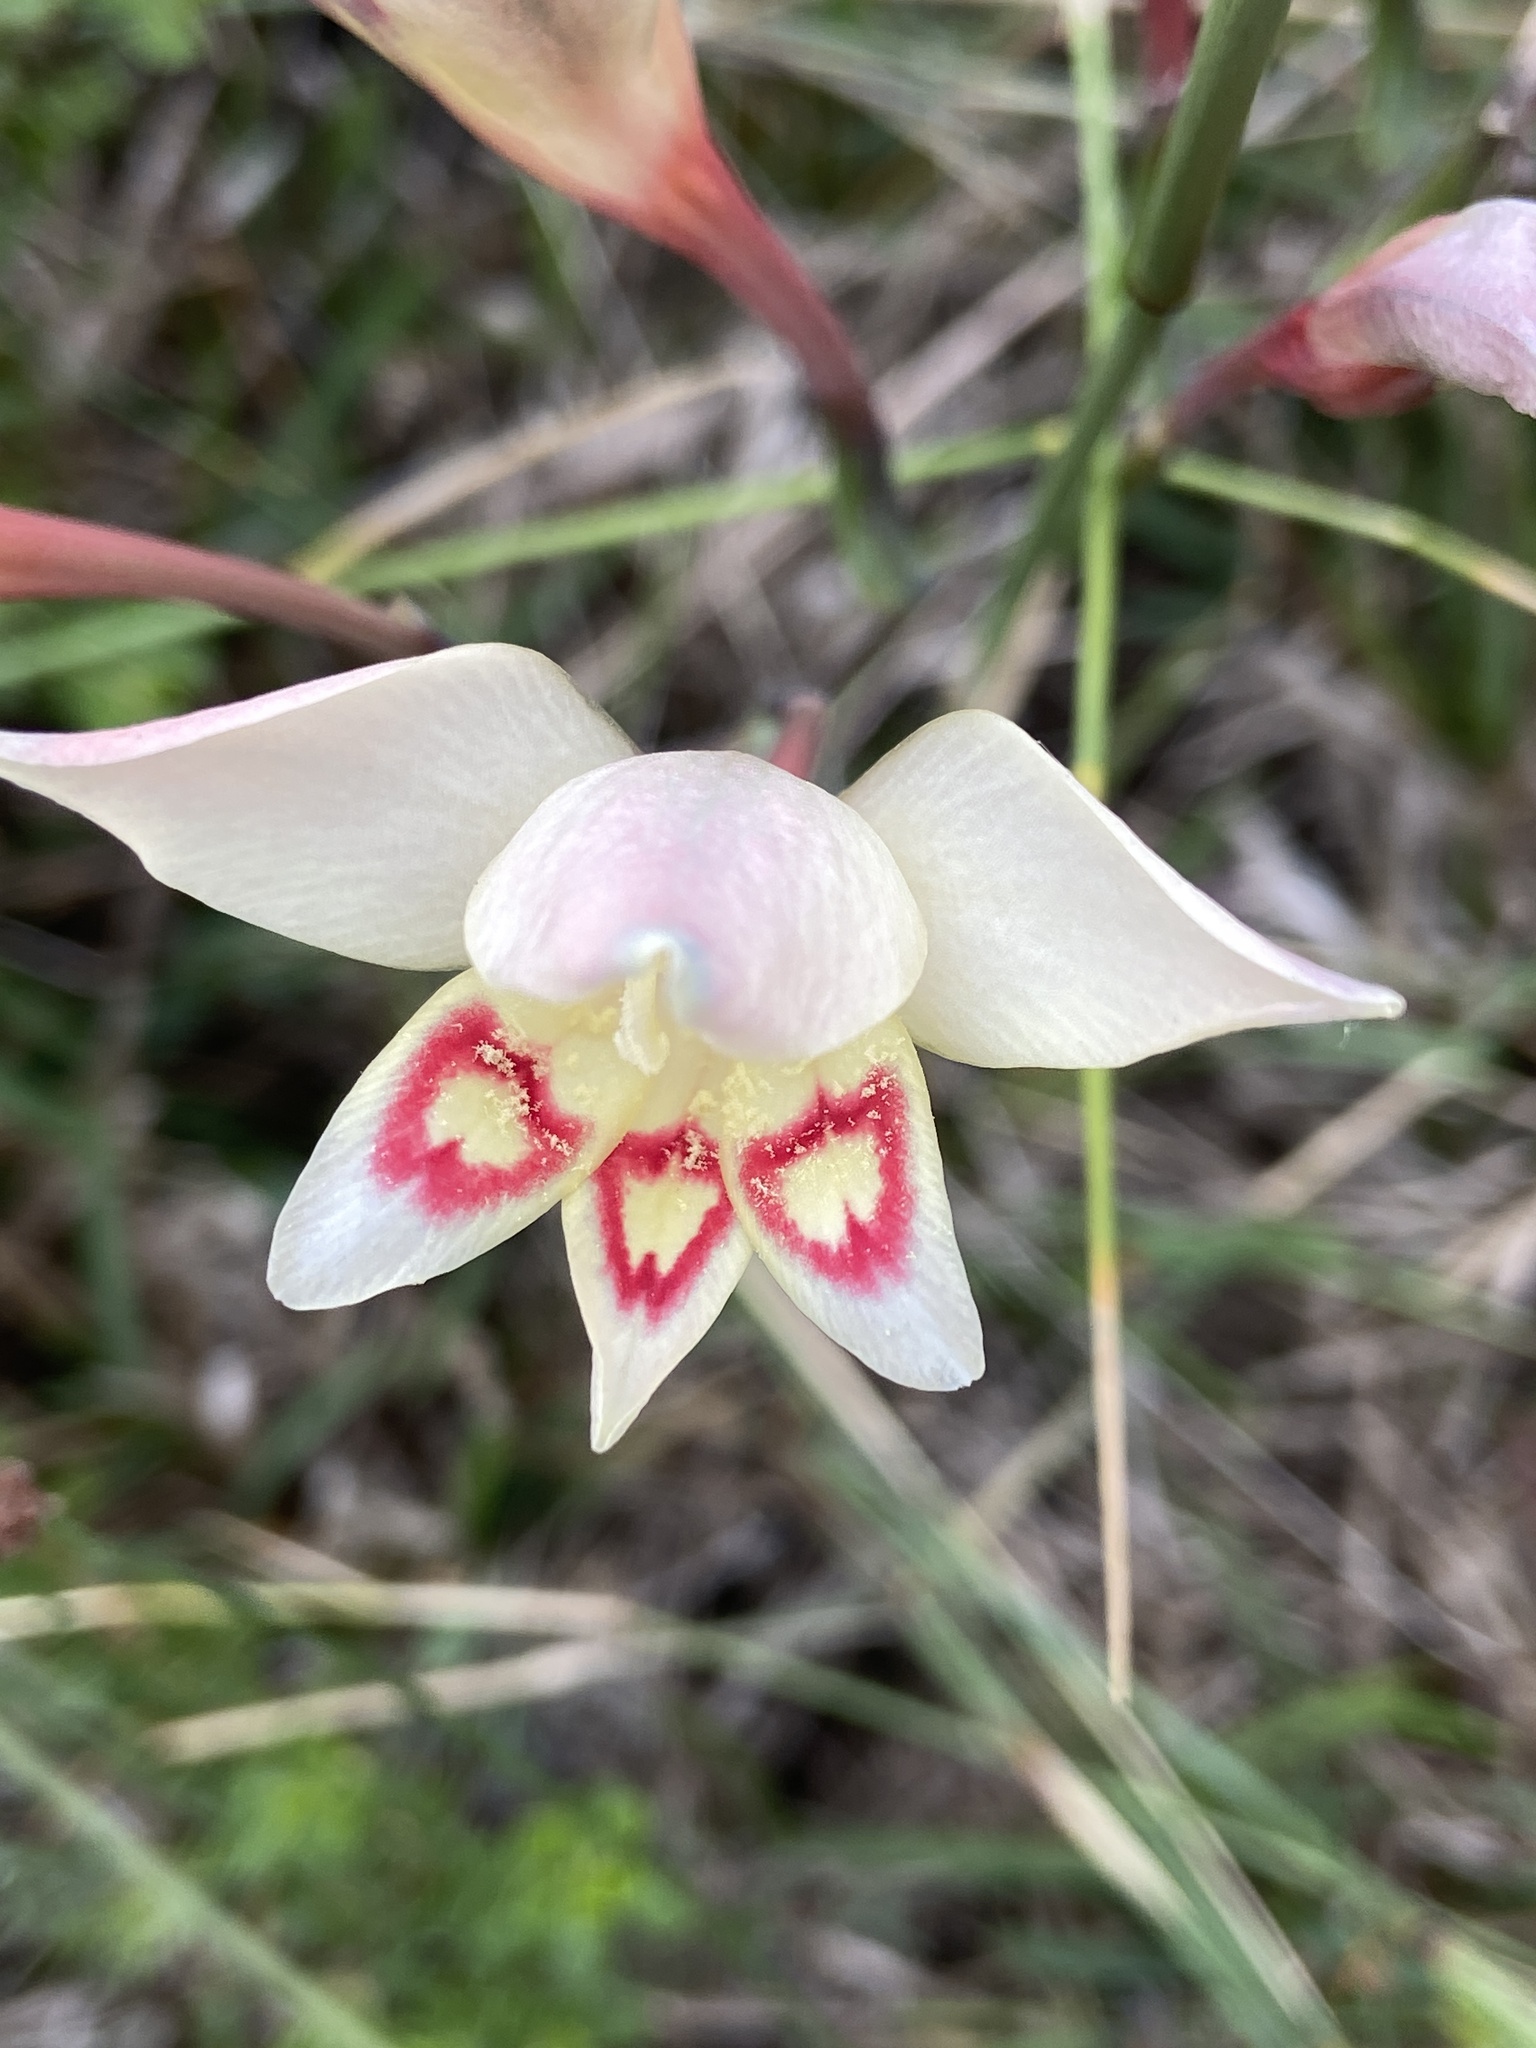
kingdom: Plantae
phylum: Tracheophyta
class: Liliopsida
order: Asparagales
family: Iridaceae
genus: Gladiolus
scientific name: Gladiolus angustus
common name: Painted-lady
